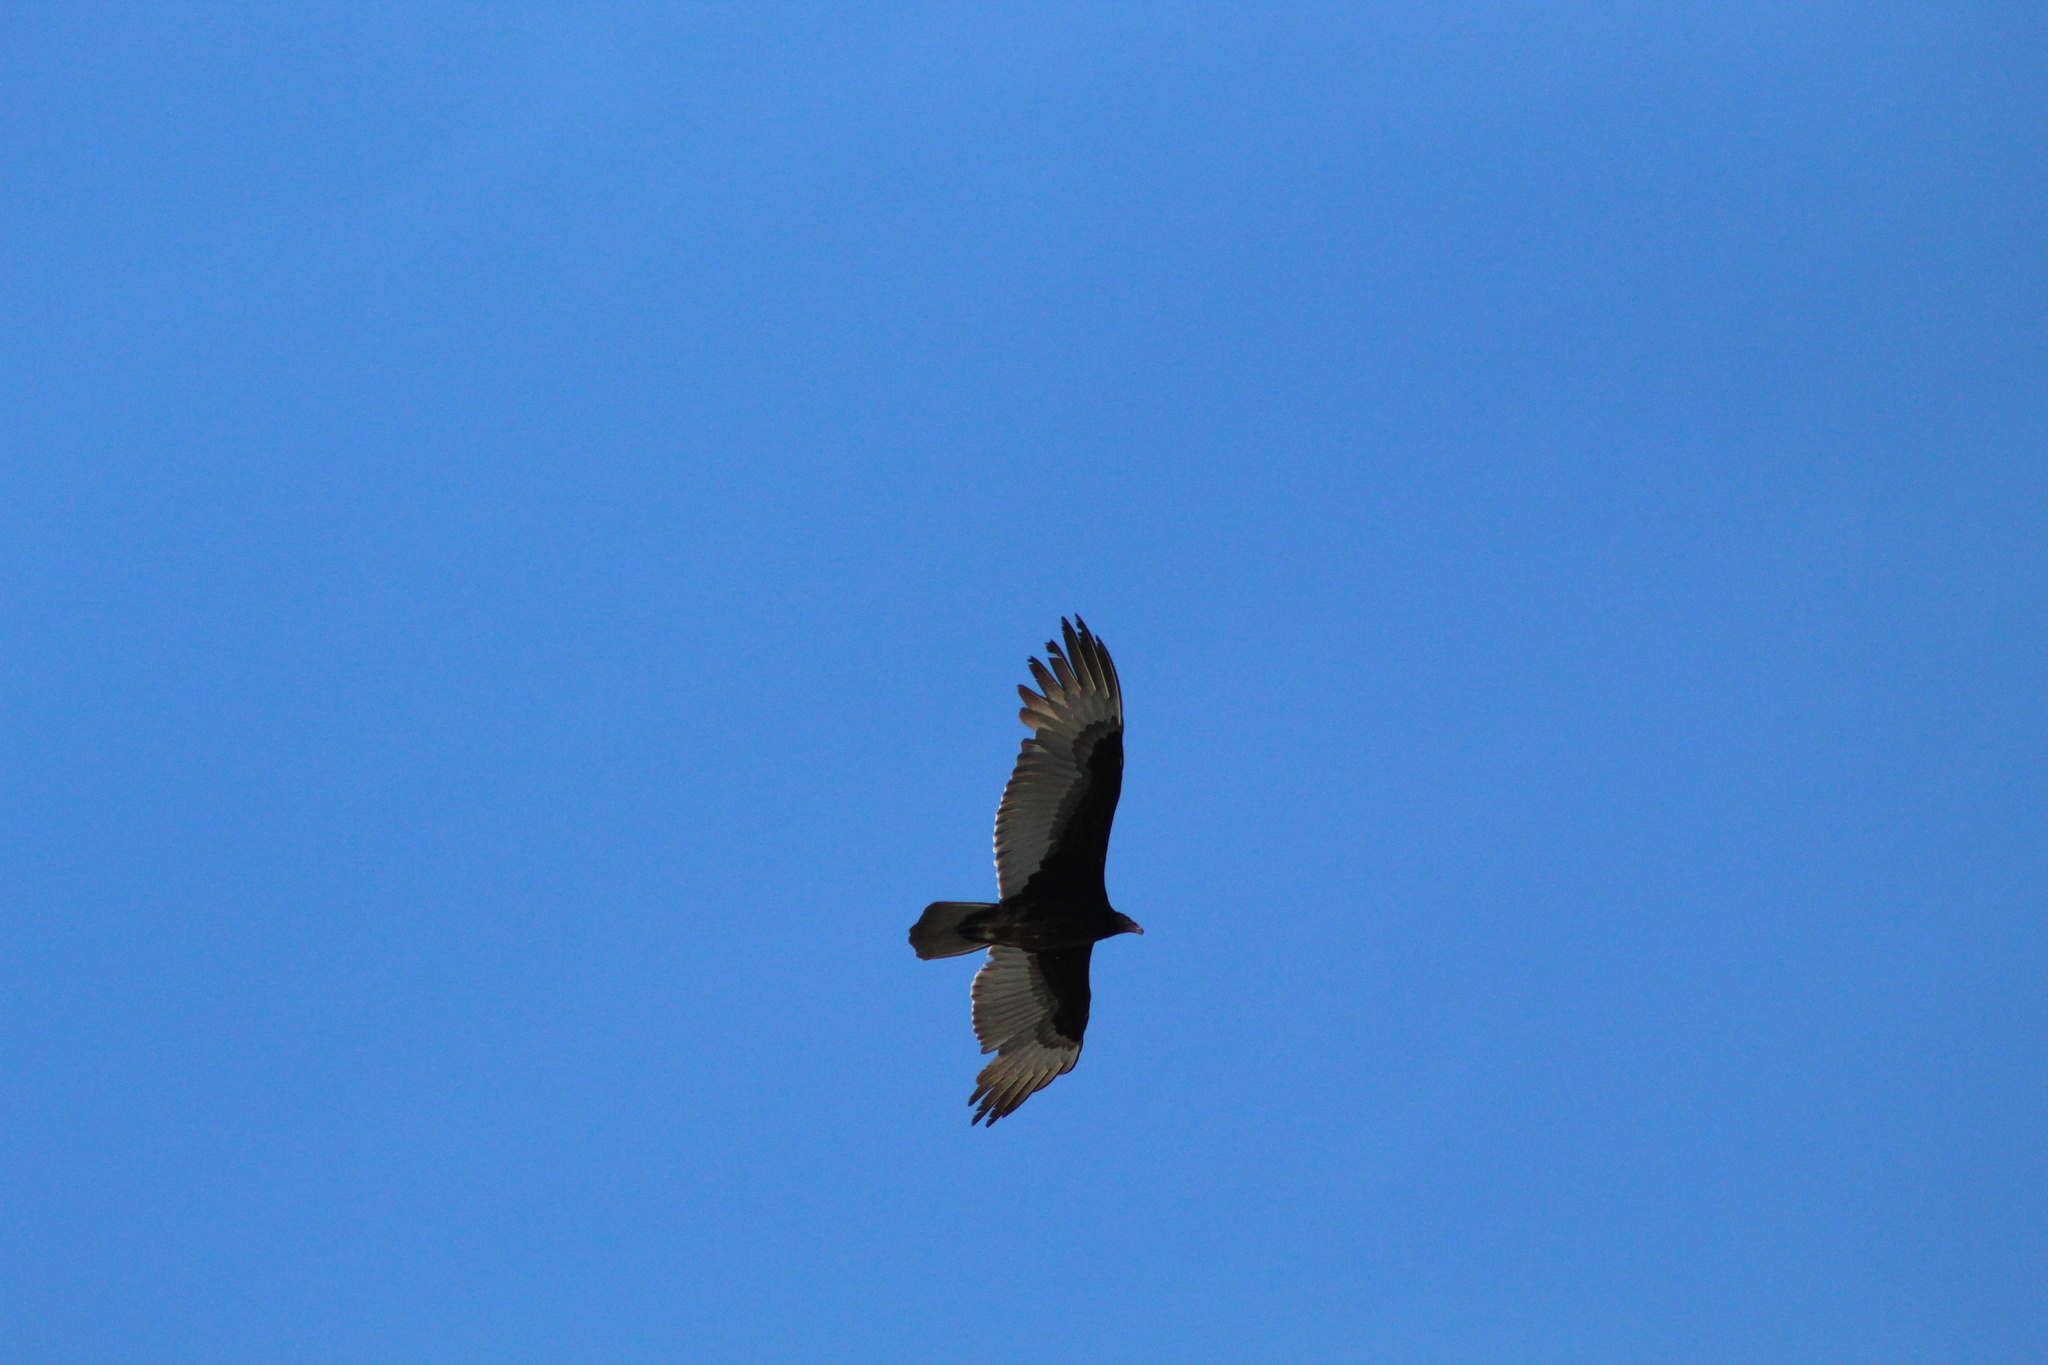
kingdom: Animalia
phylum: Chordata
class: Aves
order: Accipitriformes
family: Cathartidae
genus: Cathartes
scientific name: Cathartes aura
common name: Turkey vulture
